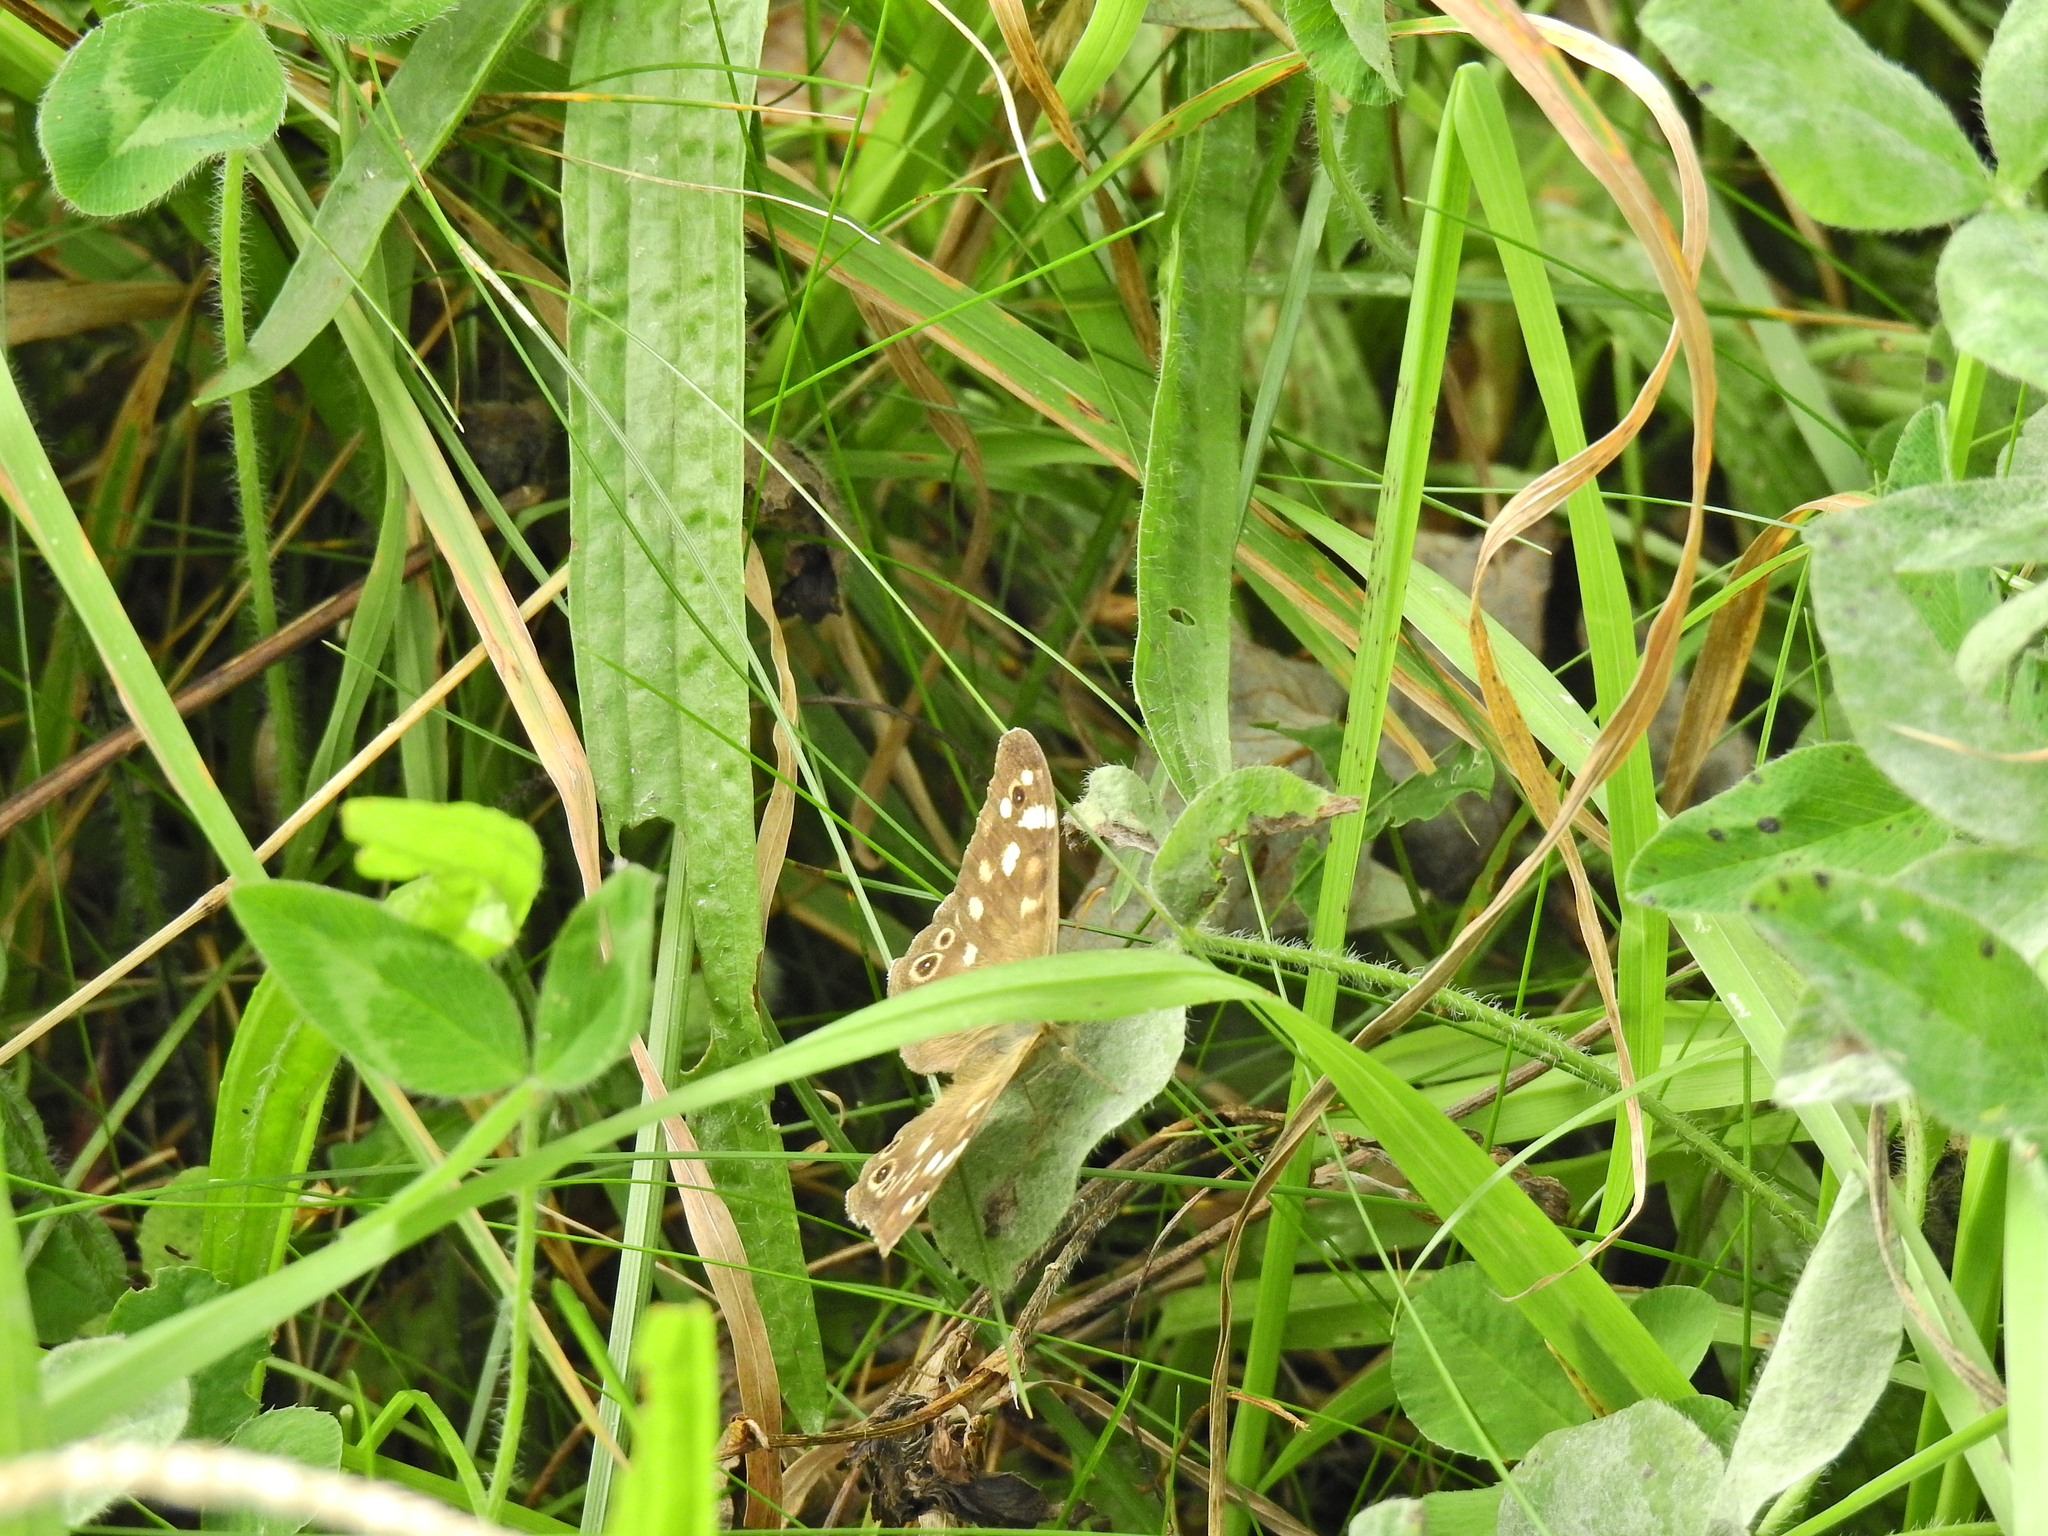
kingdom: Animalia
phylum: Arthropoda
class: Insecta
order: Lepidoptera
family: Nymphalidae
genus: Pararge
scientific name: Pararge aegeria
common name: Speckled wood
